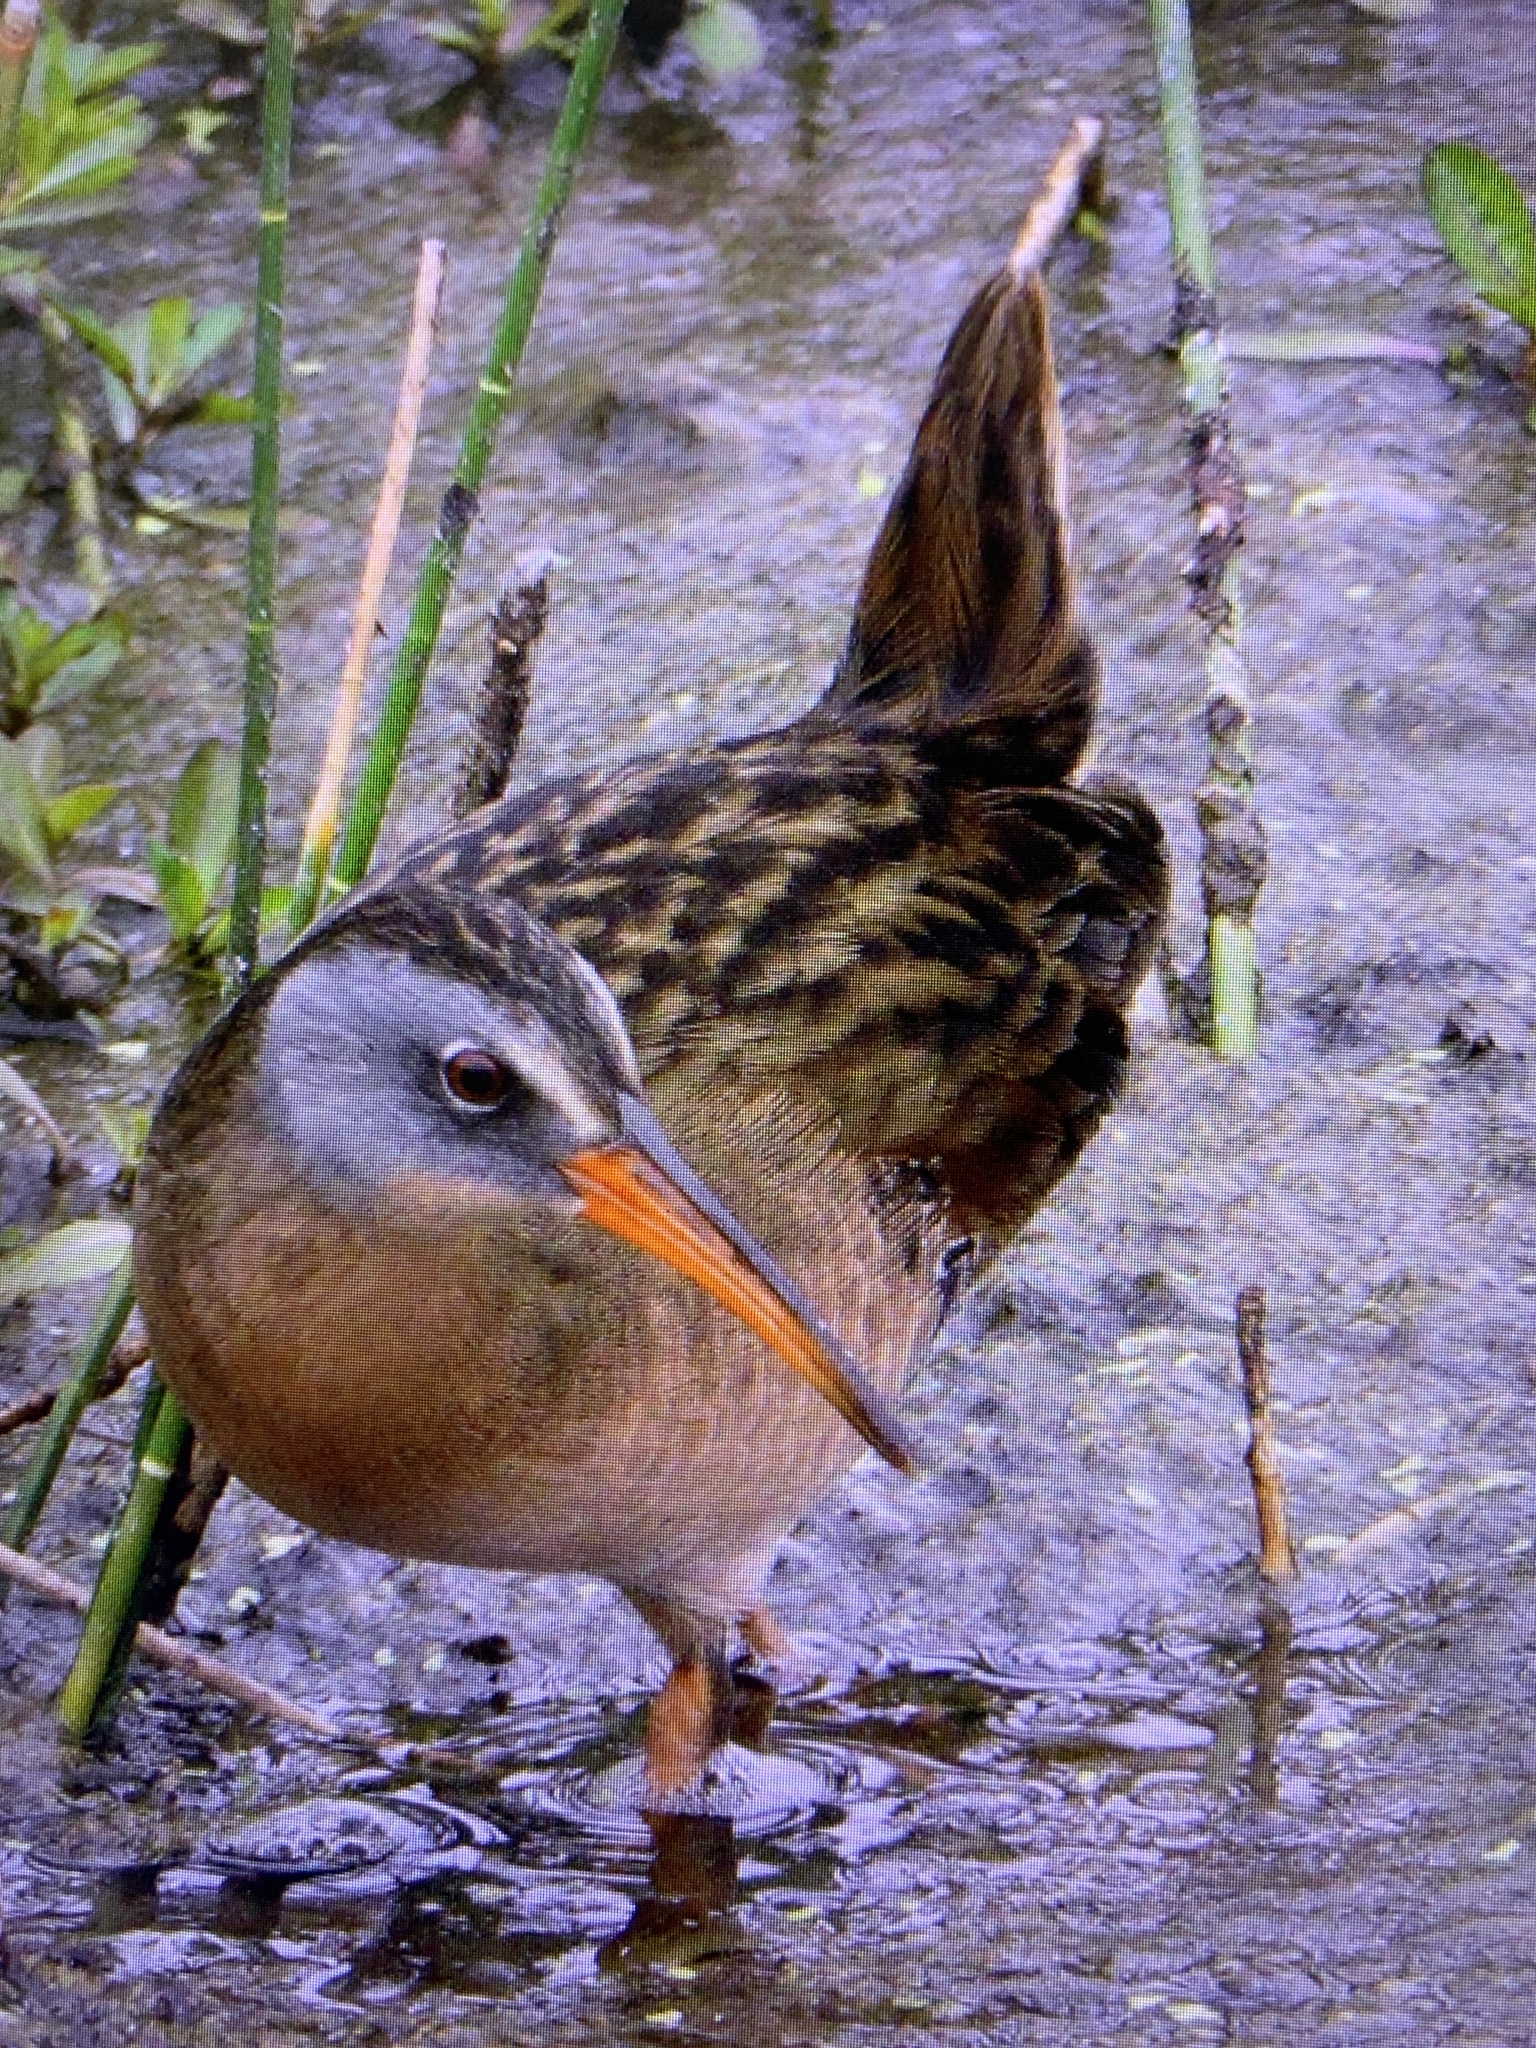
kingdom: Animalia
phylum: Chordata
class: Aves
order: Gruiformes
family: Rallidae
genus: Rallus
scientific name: Rallus limicola
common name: Virginia rail
